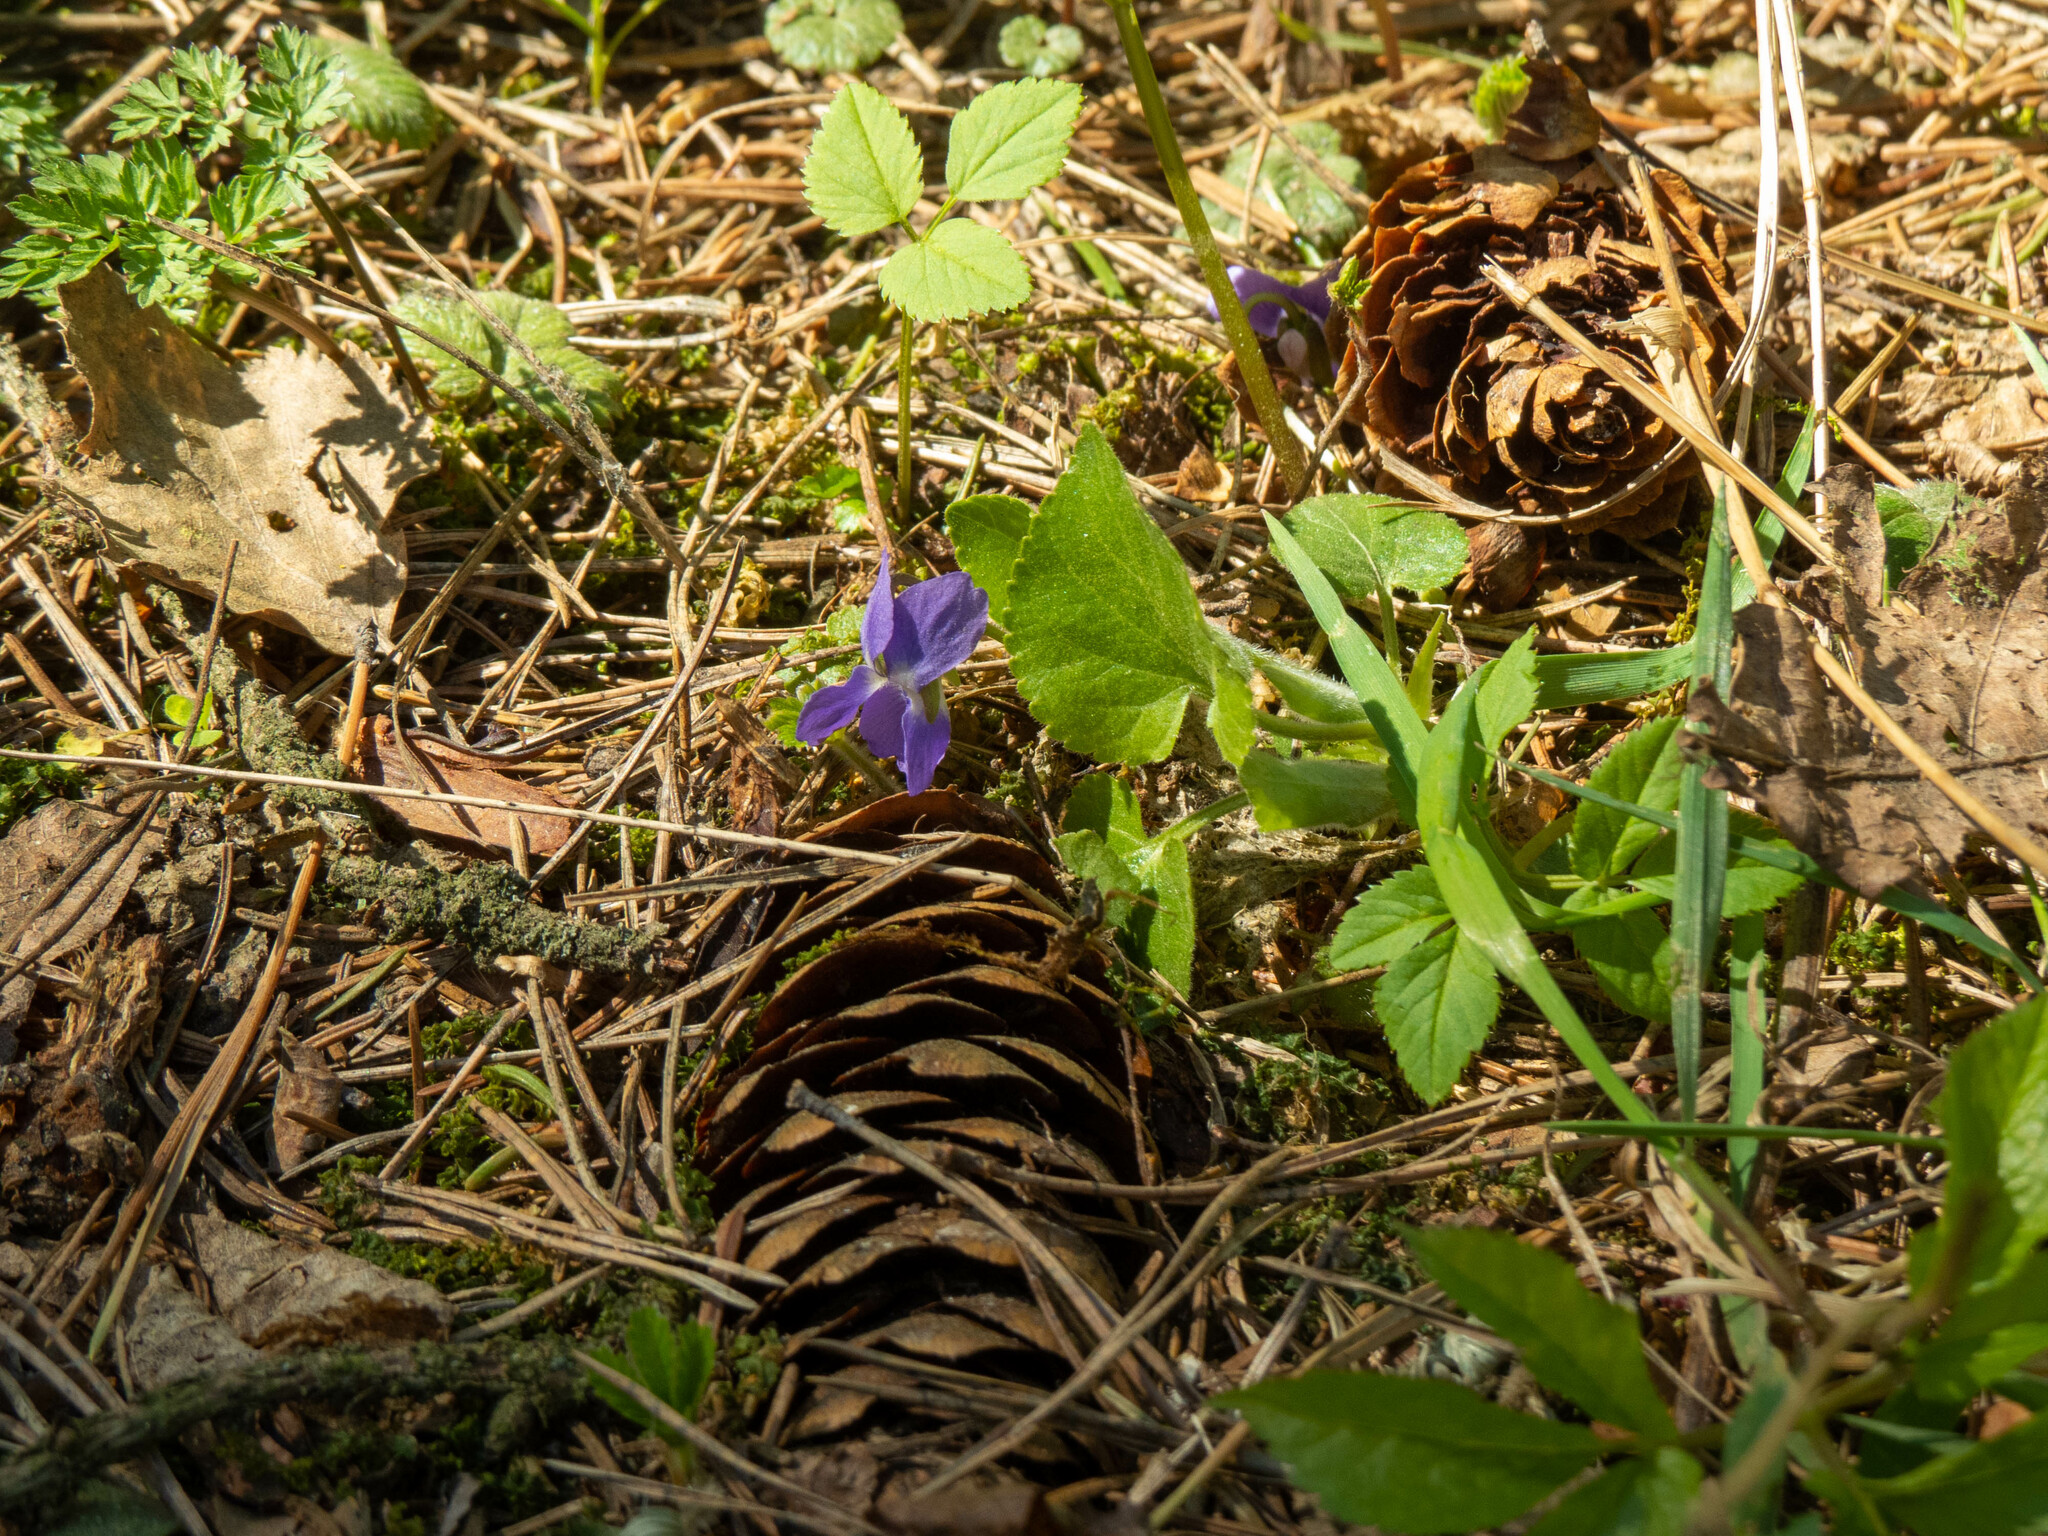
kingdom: Plantae
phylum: Tracheophyta
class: Magnoliopsida
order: Malpighiales
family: Violaceae
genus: Viola
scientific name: Viola collina
